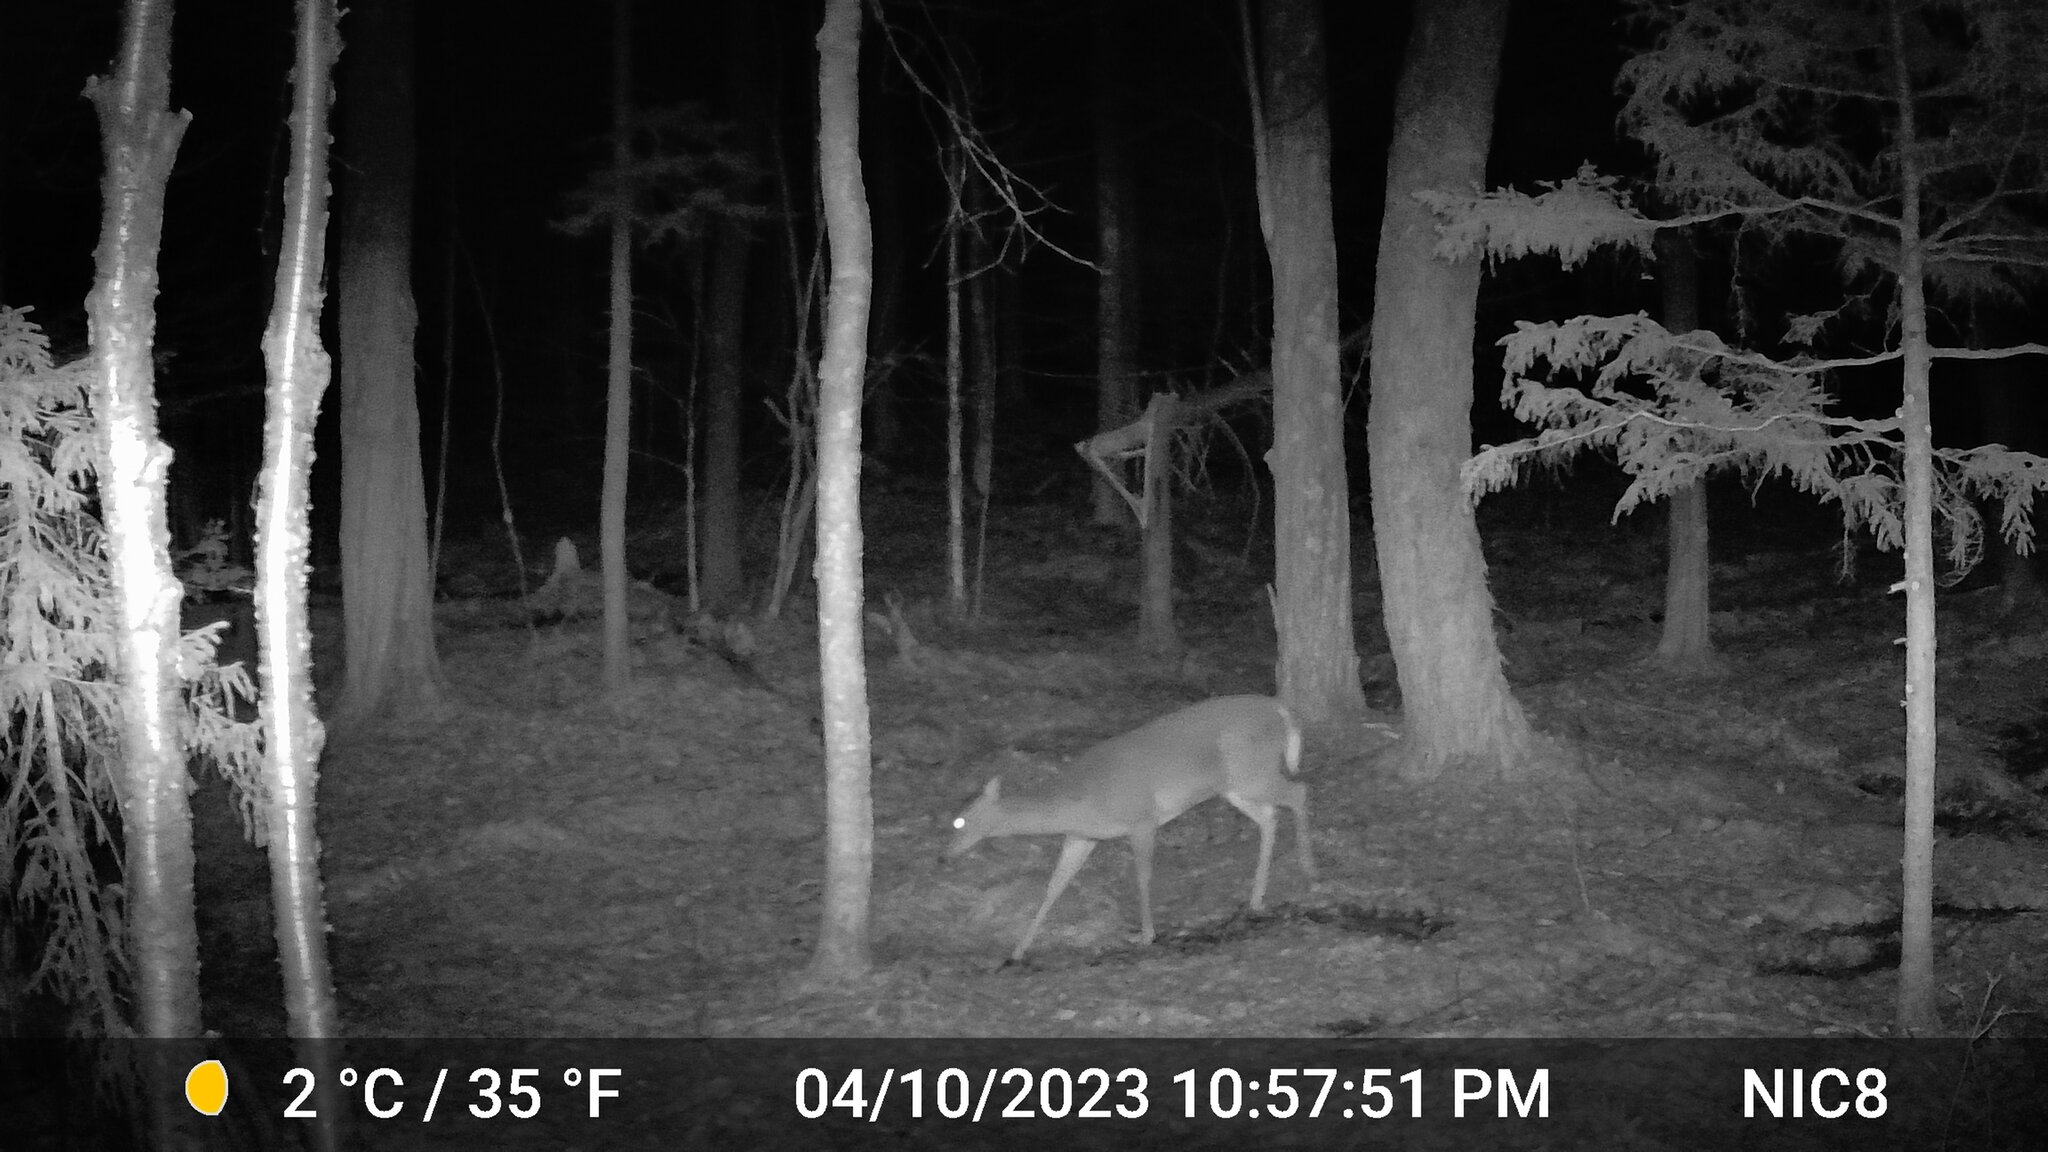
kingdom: Animalia
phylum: Chordata
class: Mammalia
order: Artiodactyla
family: Cervidae
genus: Odocoileus
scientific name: Odocoileus virginianus
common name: White-tailed deer
